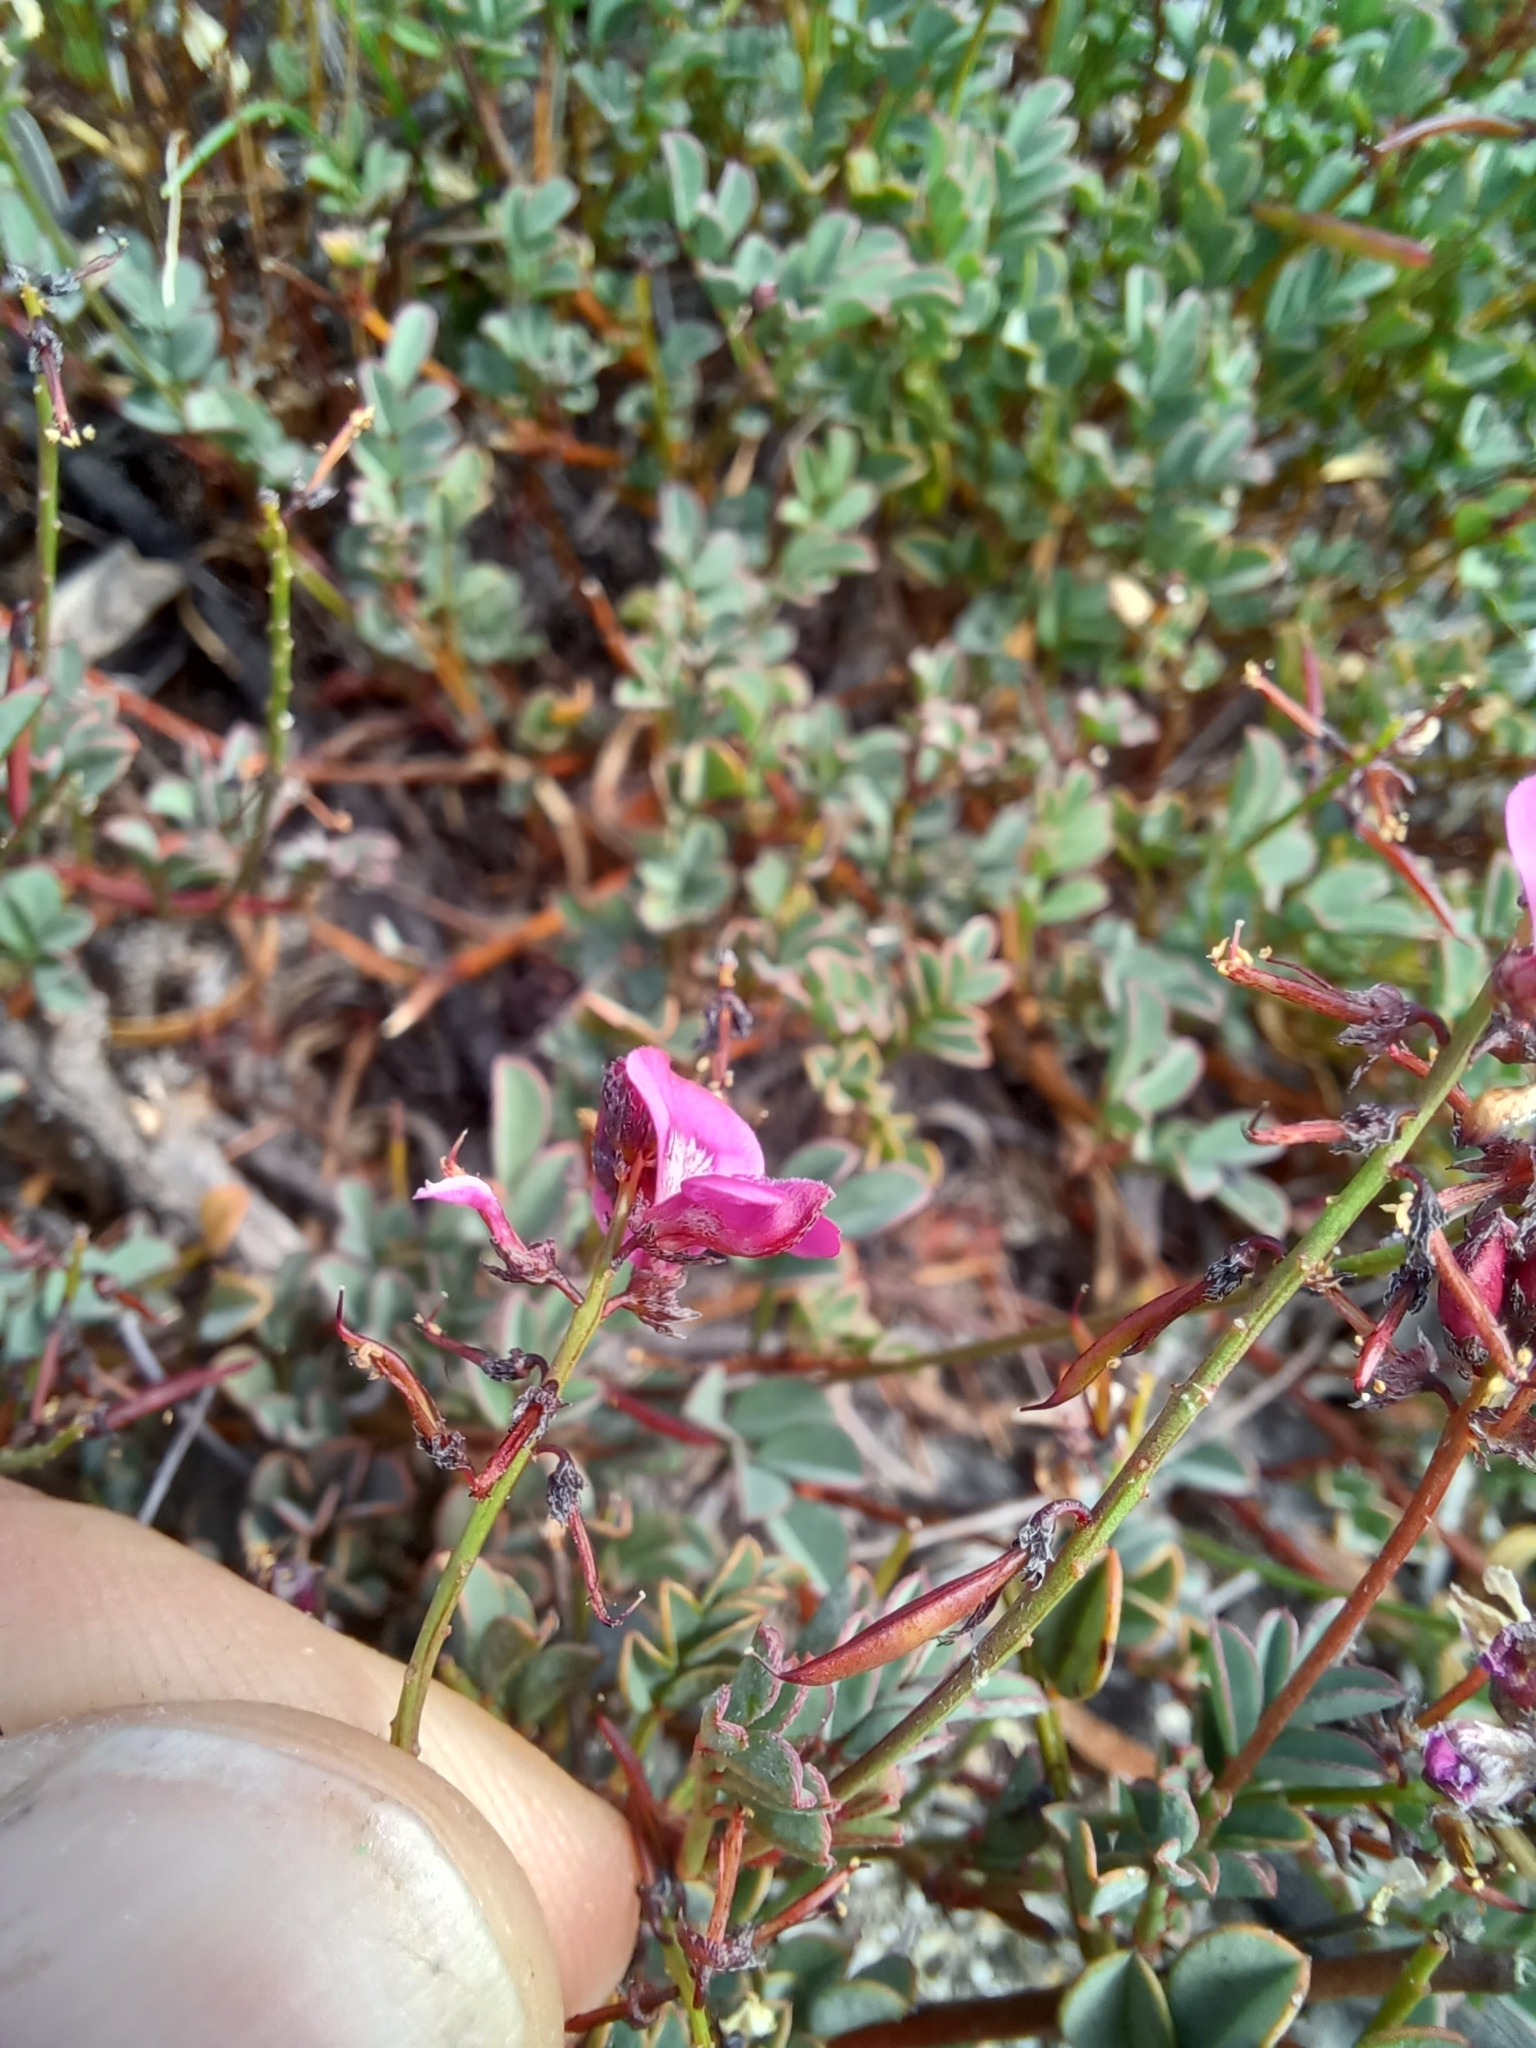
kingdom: Plantae
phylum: Tracheophyta
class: Magnoliopsida
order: Fabales
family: Fabaceae
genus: Indigofera
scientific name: Indigofera capillaris
